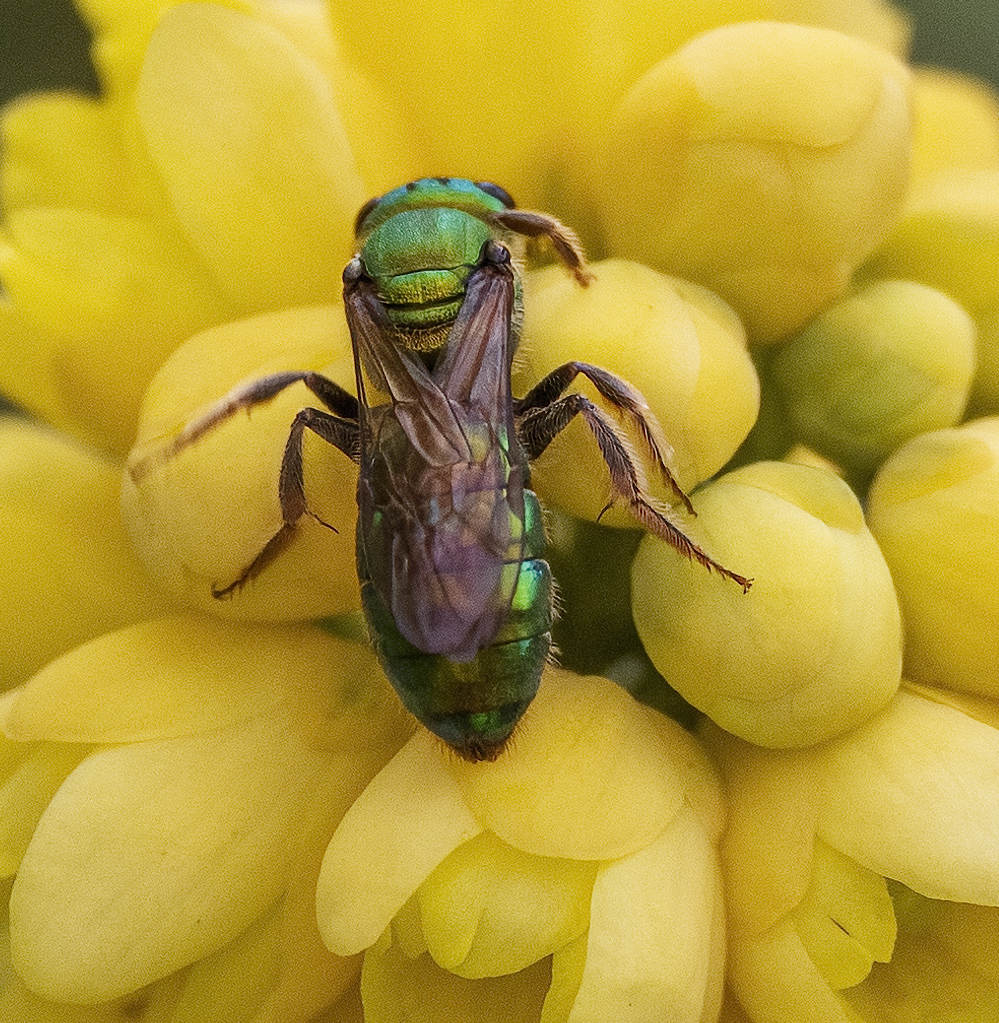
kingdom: Animalia
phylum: Arthropoda
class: Insecta
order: Hymenoptera
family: Halictidae
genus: Augochlora
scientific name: Augochlora pura
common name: Pure green sweat bee
